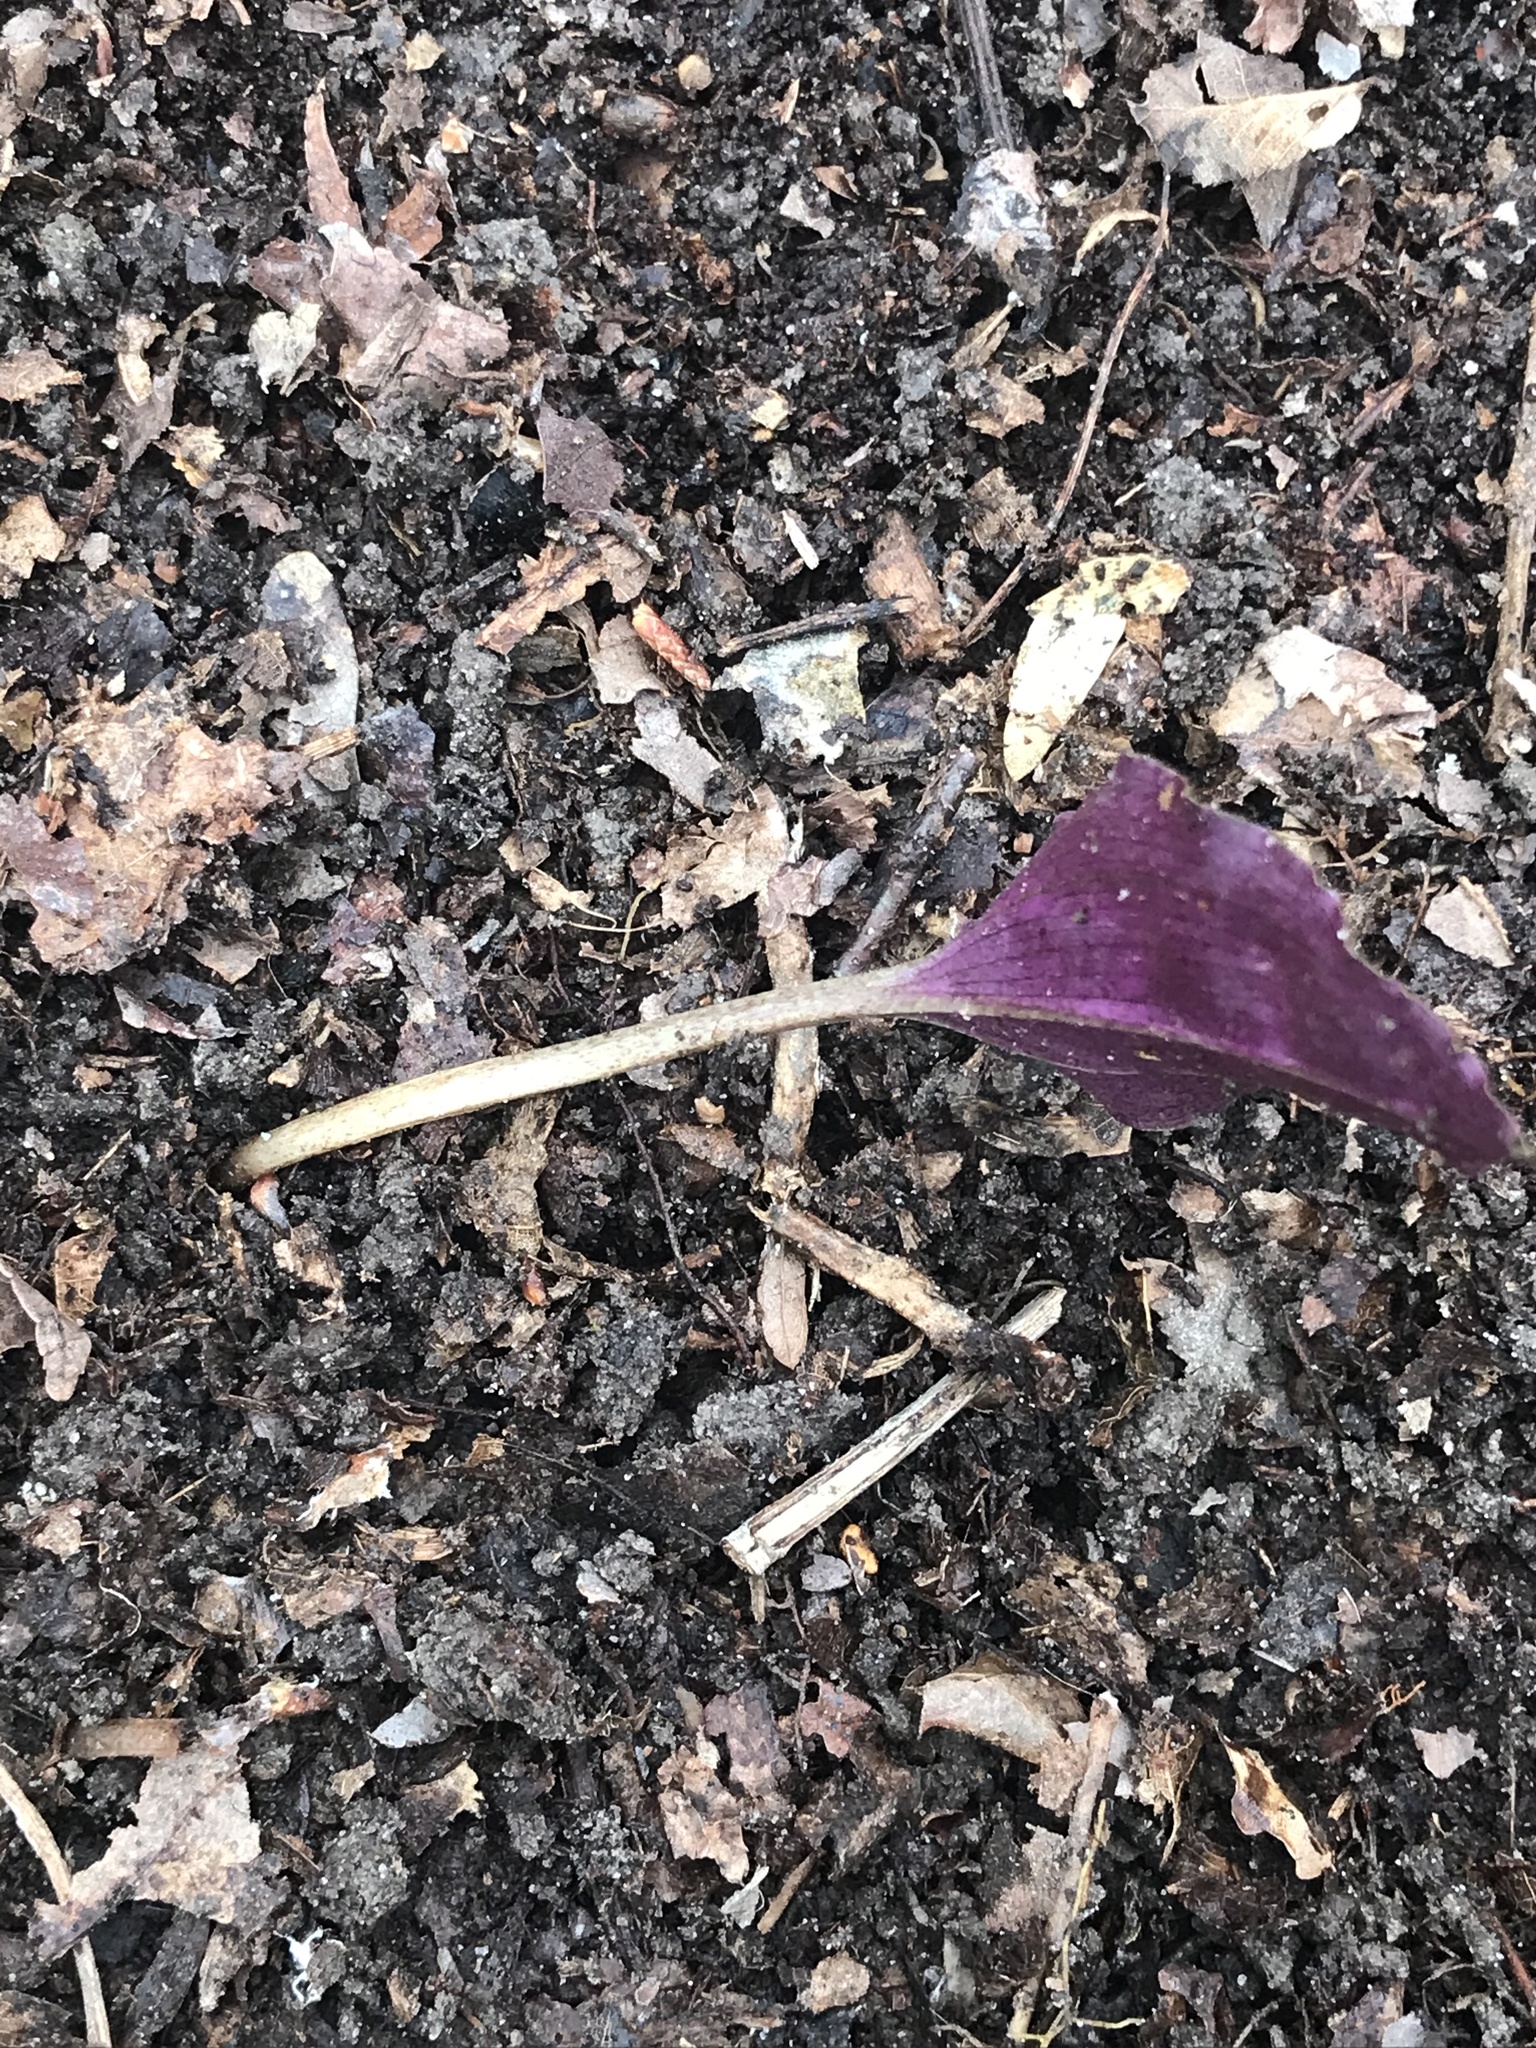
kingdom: Plantae
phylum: Tracheophyta
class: Liliopsida
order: Asparagales
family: Orchidaceae
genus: Tipularia
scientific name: Tipularia discolor
